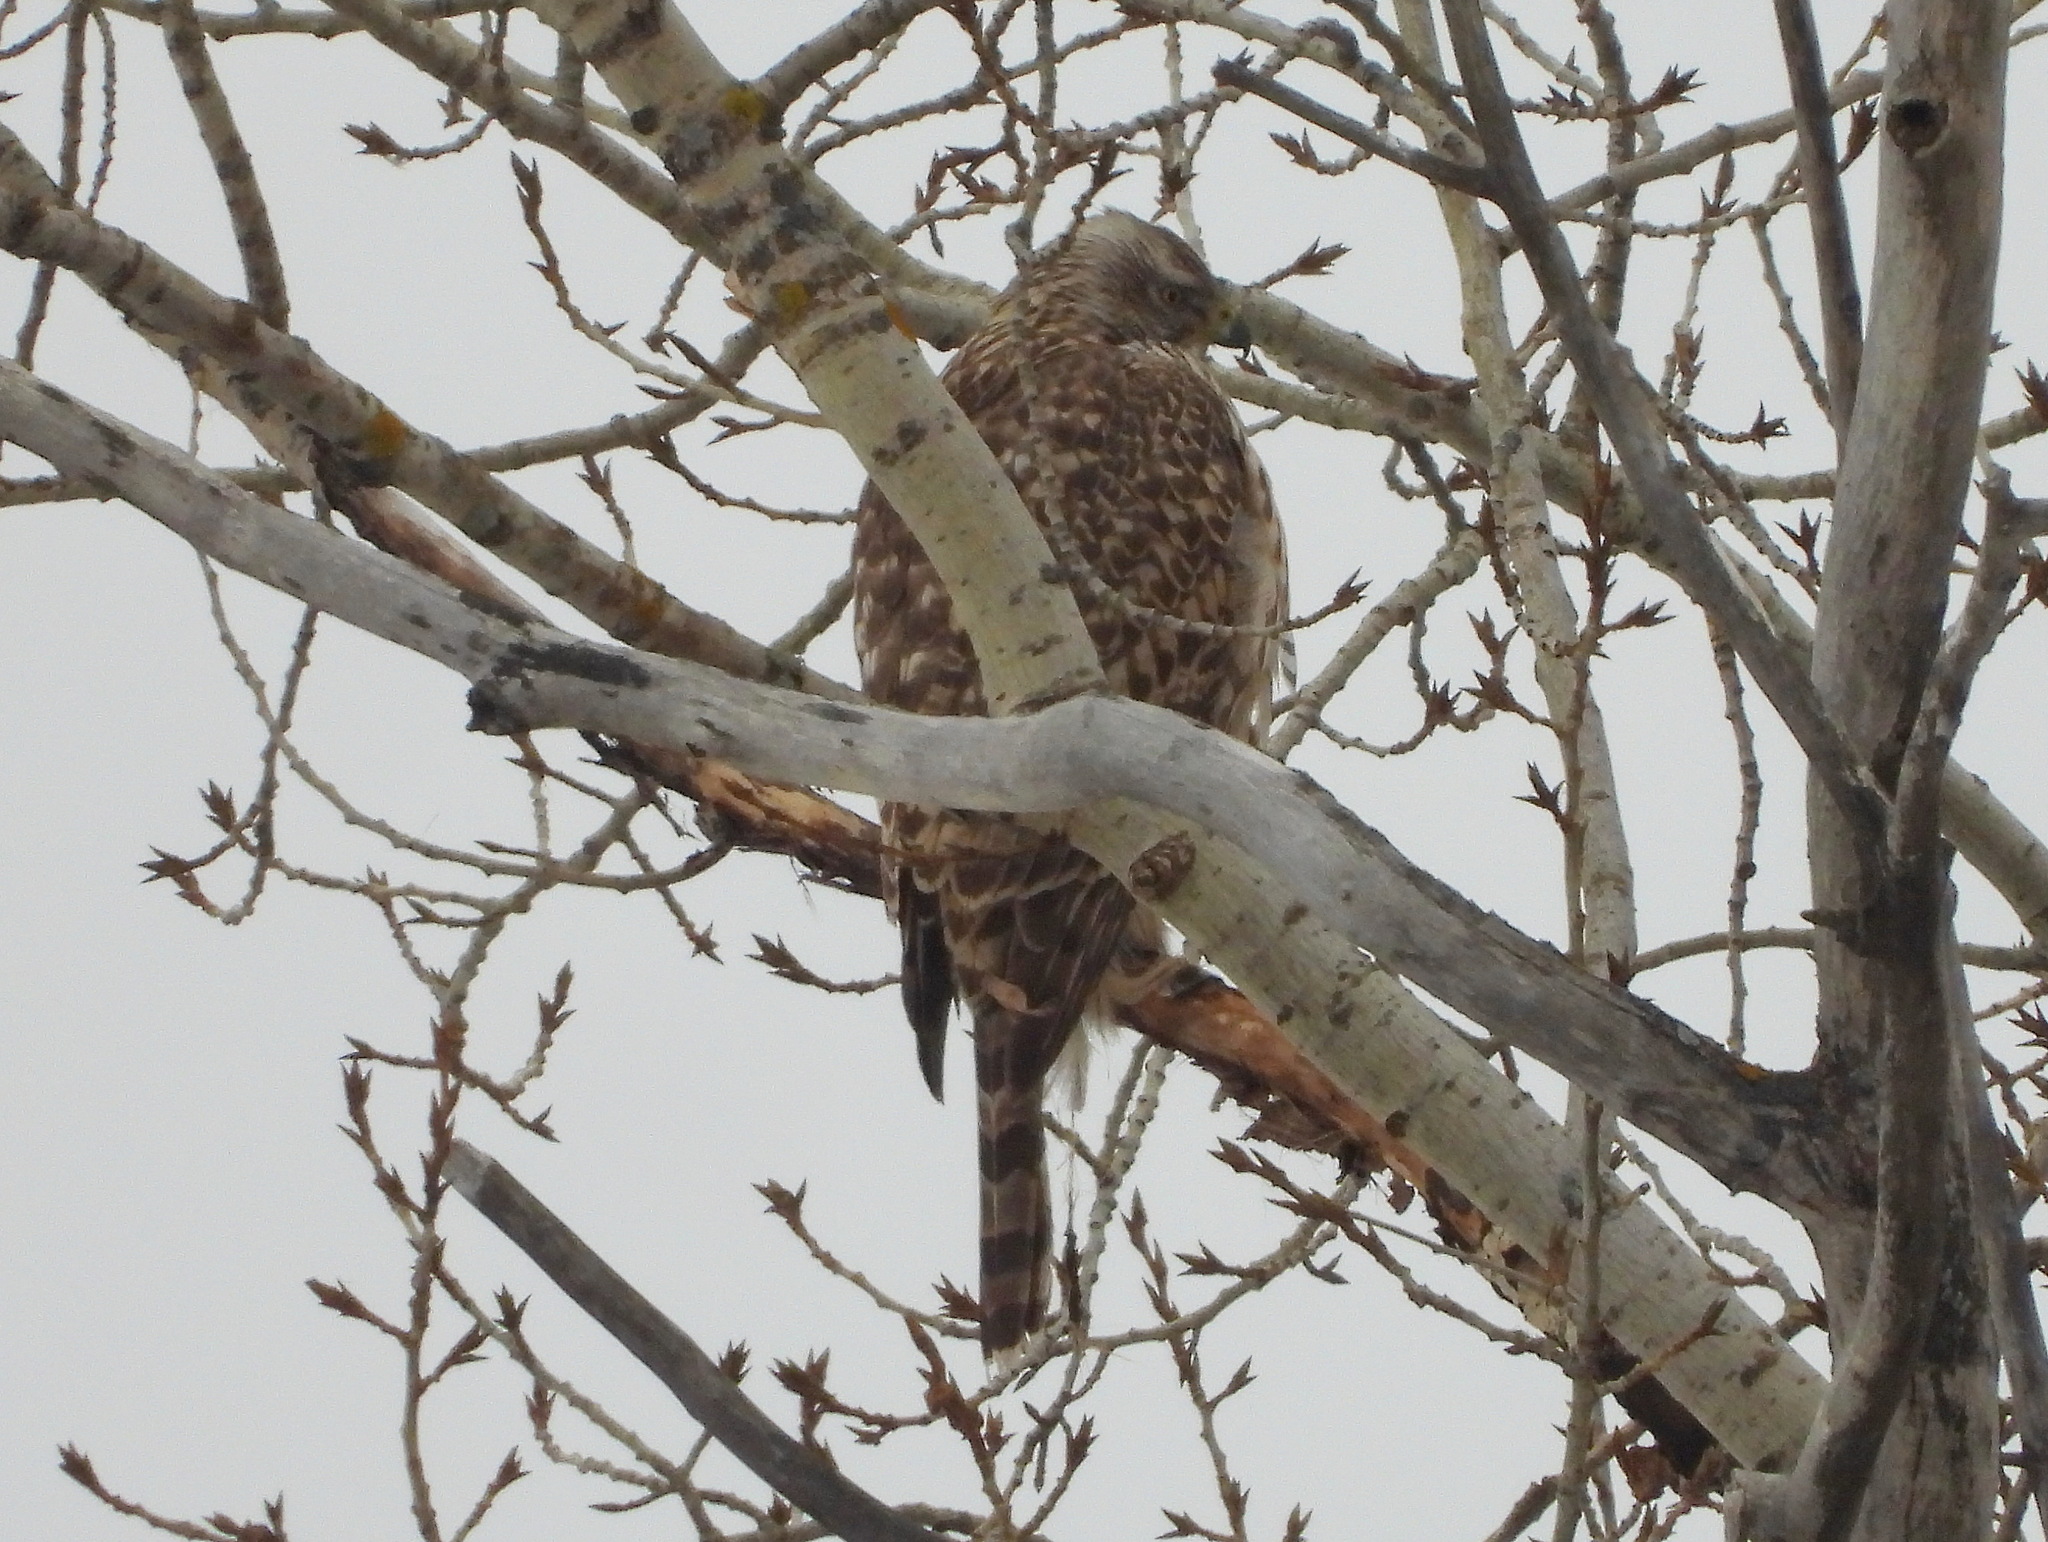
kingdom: Animalia
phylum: Chordata
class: Aves
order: Accipitriformes
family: Accipitridae
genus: Accipiter
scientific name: Accipiter gentilis
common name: Northern goshawk
